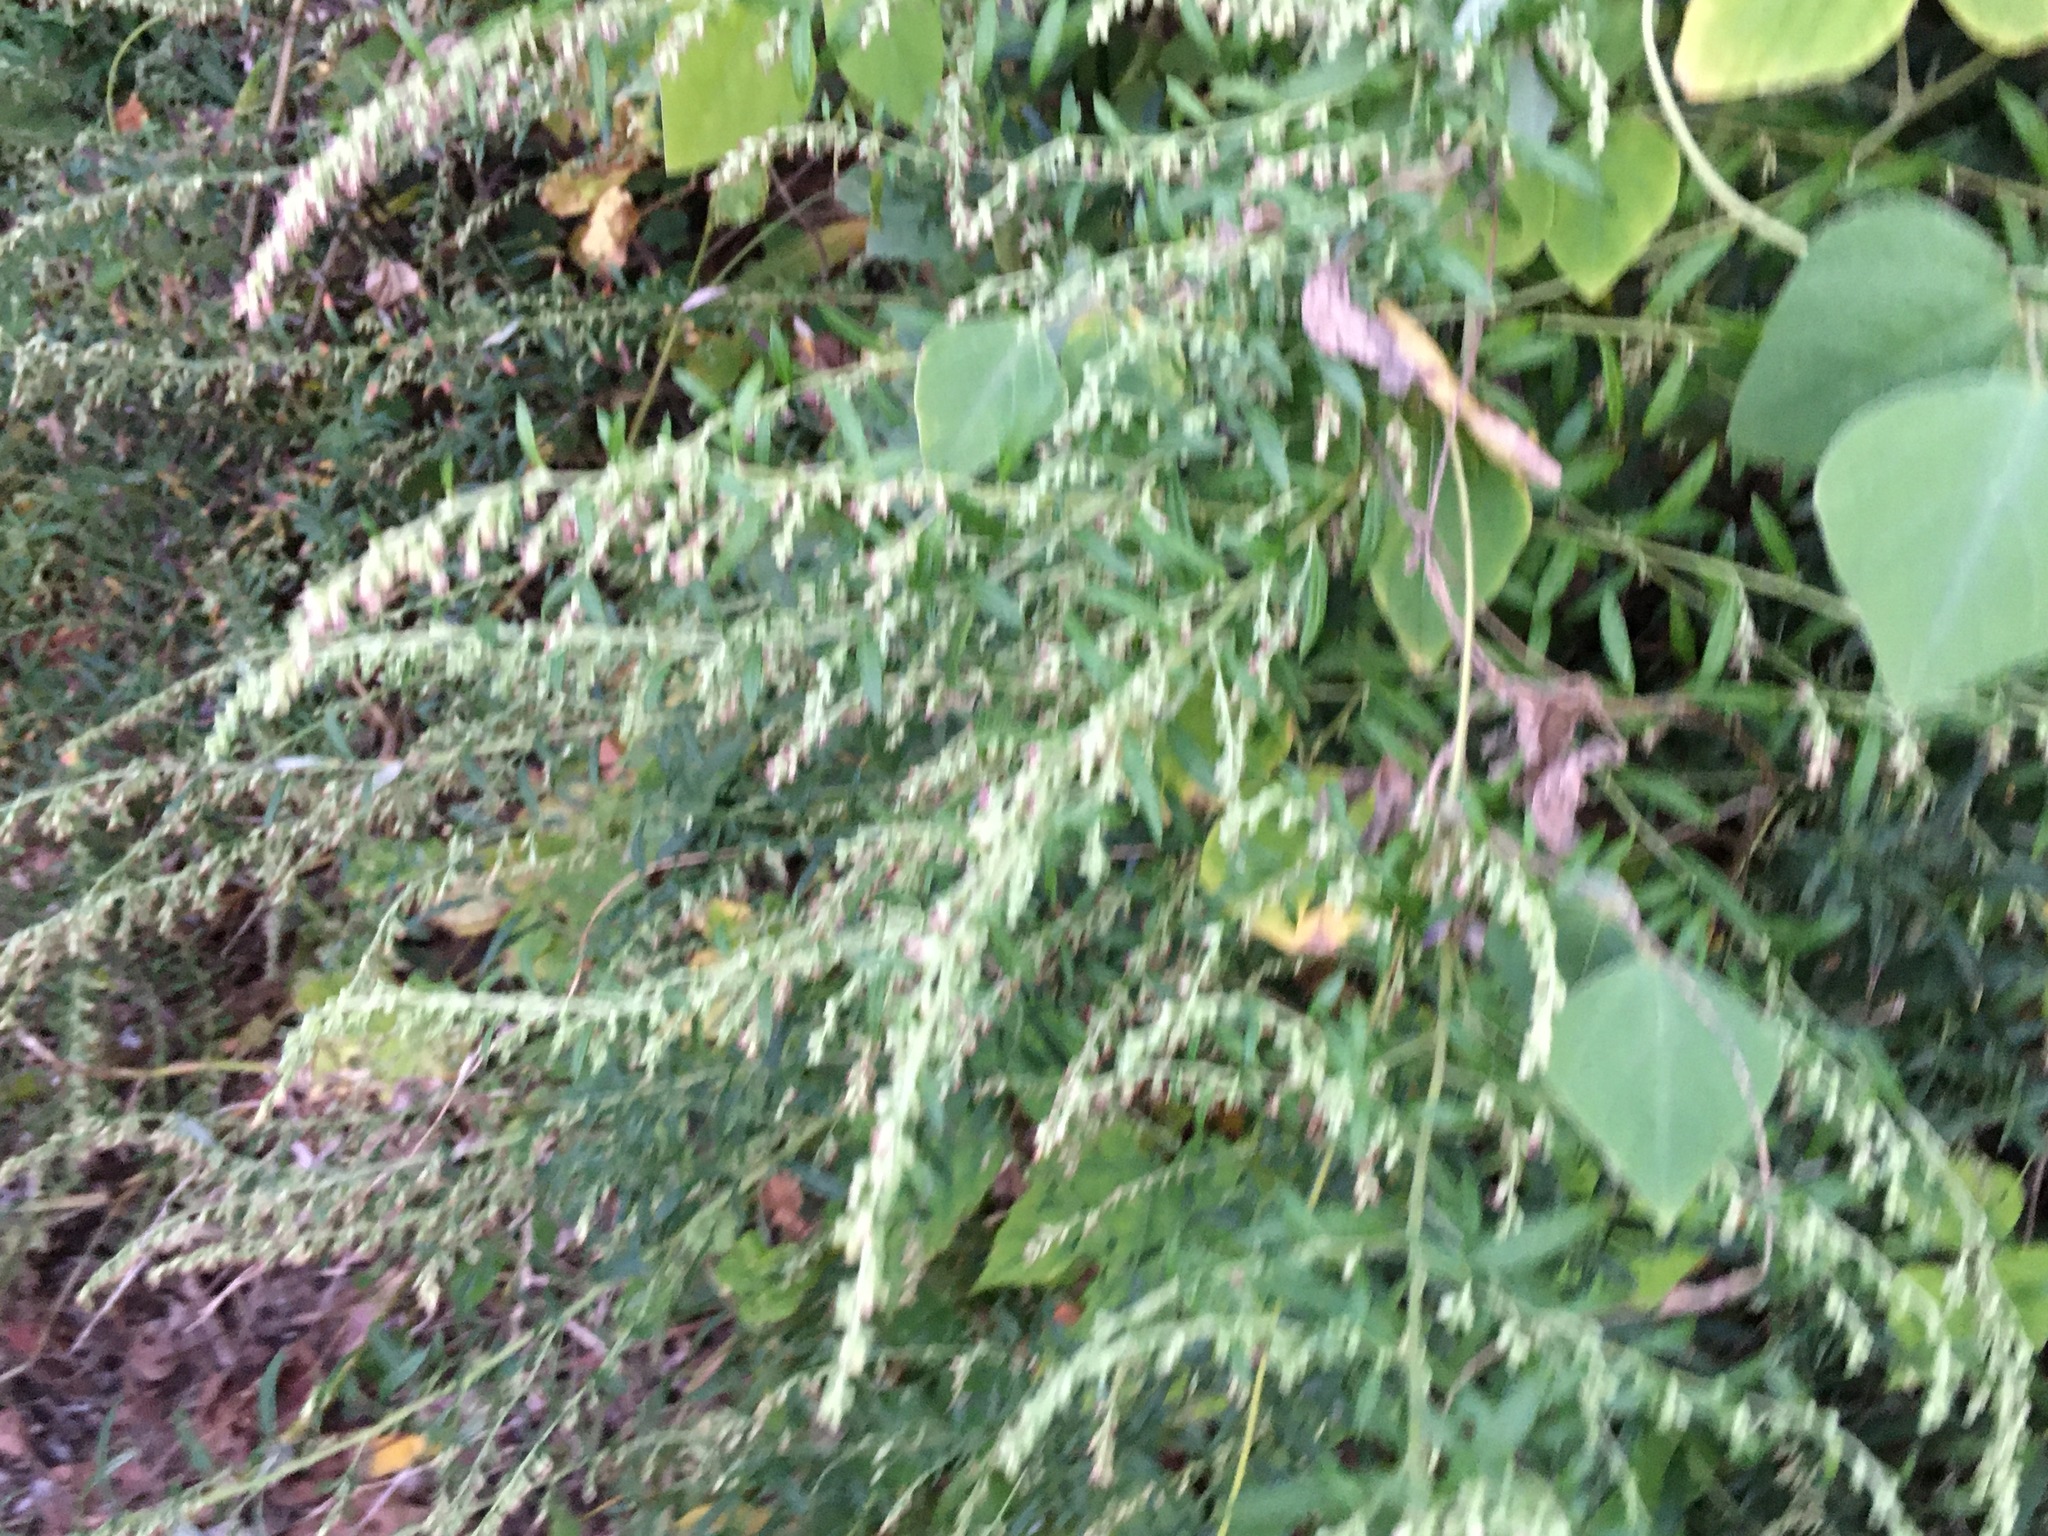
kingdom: Plantae
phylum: Tracheophyta
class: Magnoliopsida
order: Asterales
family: Asteraceae
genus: Artemisia
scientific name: Artemisia vulgaris
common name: Mugwort
